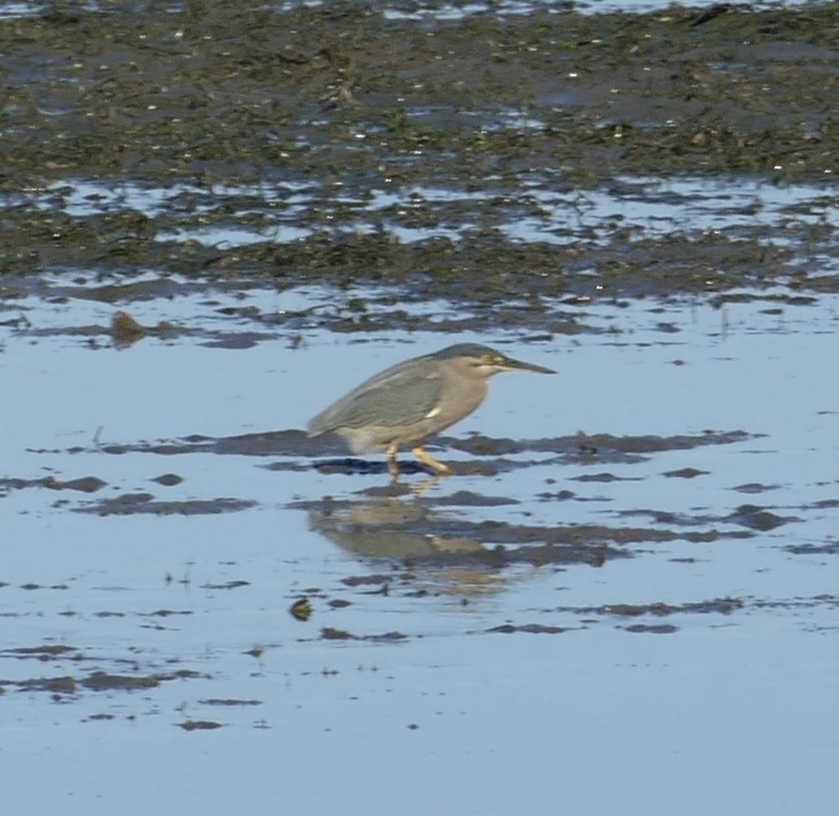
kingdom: Animalia
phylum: Chordata
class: Aves
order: Pelecaniformes
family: Ardeidae
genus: Butorides
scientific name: Butorides striata
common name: Striated heron
